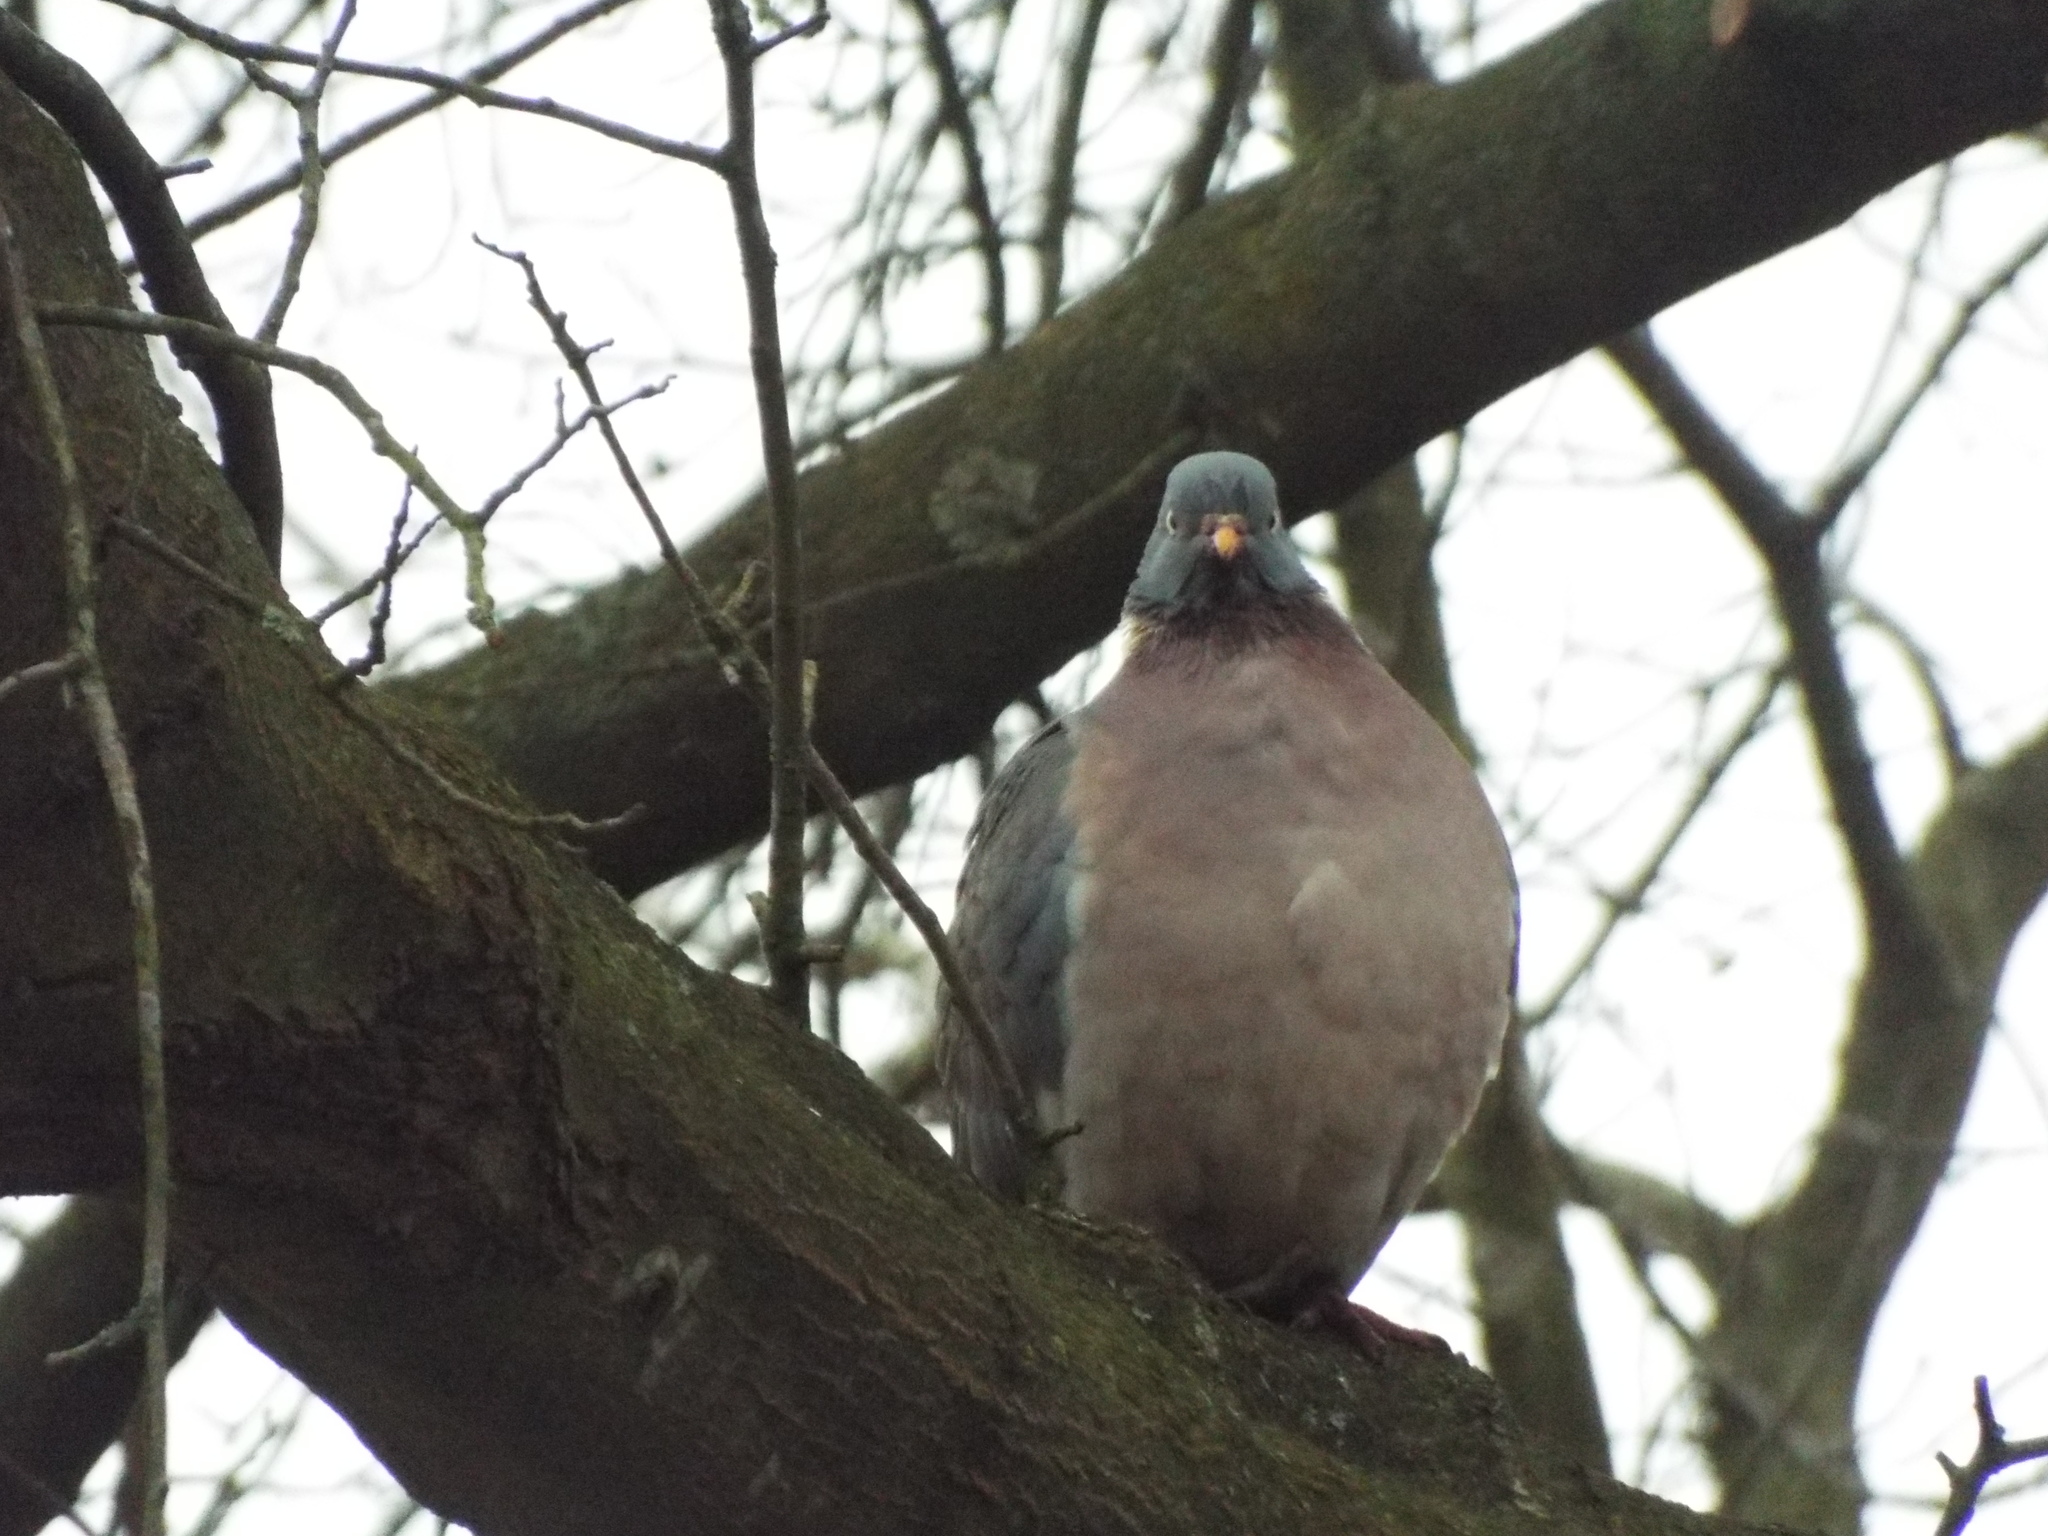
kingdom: Animalia
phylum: Chordata
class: Aves
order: Columbiformes
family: Columbidae
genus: Columba
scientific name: Columba palumbus
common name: Common wood pigeon
